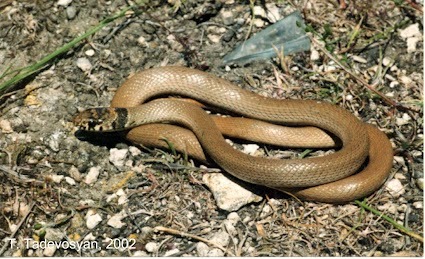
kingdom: Animalia
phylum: Chordata
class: Squamata
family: Colubridae
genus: Eirenis
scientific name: Eirenis modestus
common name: Ring-headed dwarf snake
